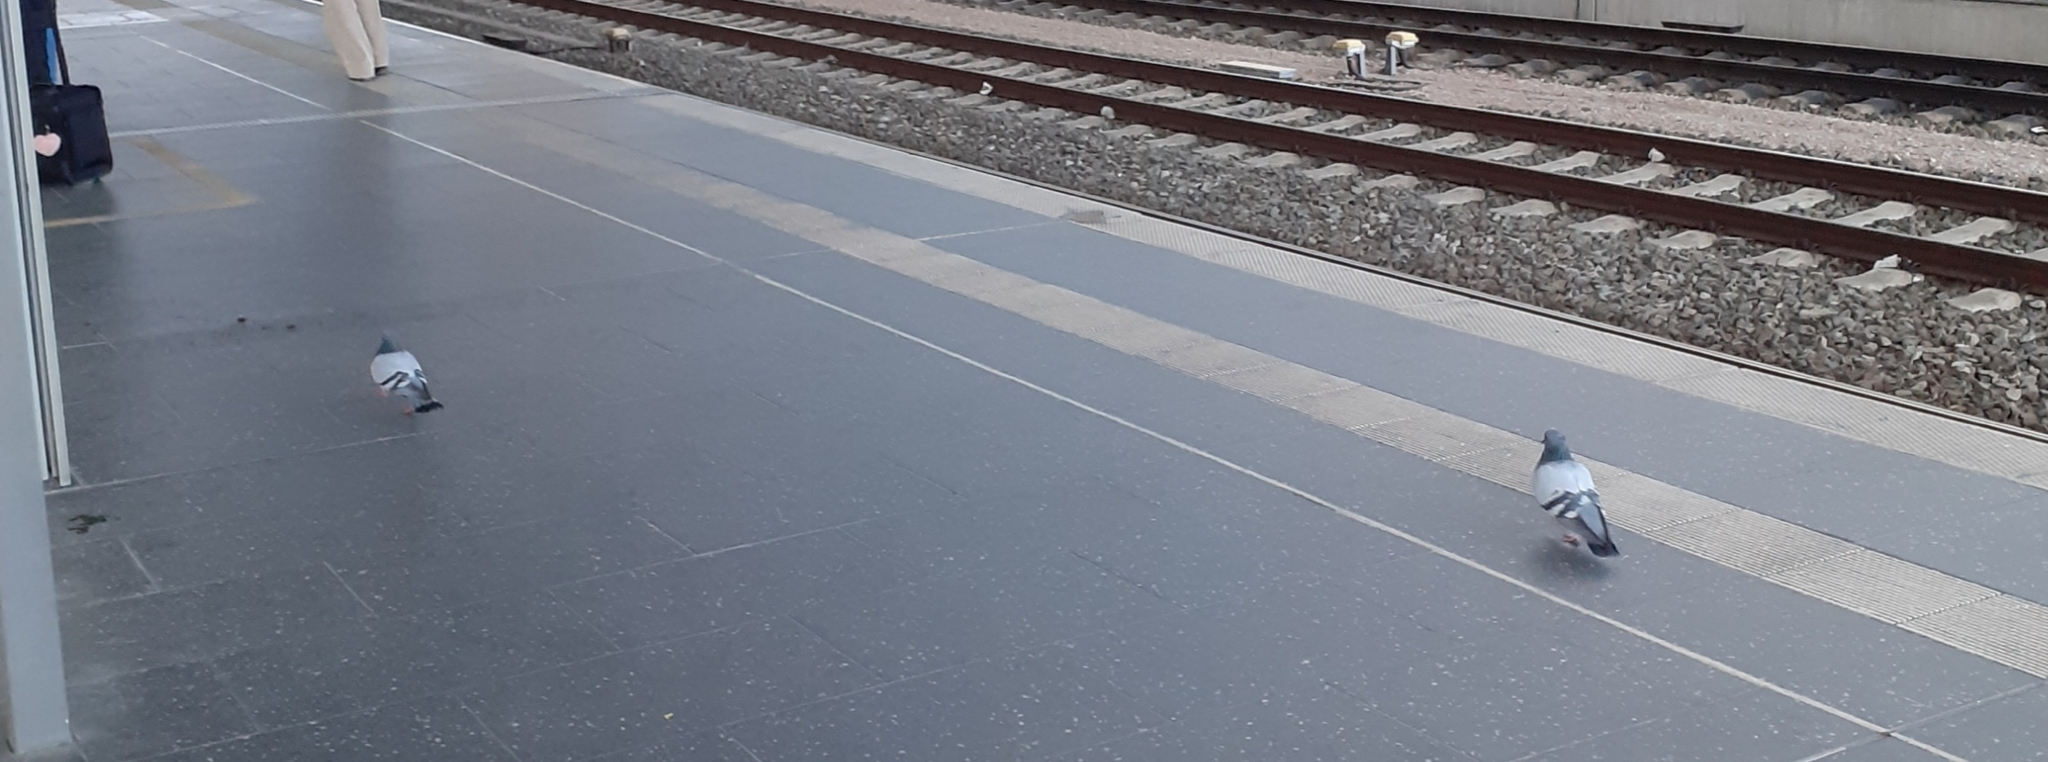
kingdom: Animalia
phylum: Chordata
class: Aves
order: Columbiformes
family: Columbidae
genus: Columba
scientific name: Columba livia
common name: Rock pigeon
